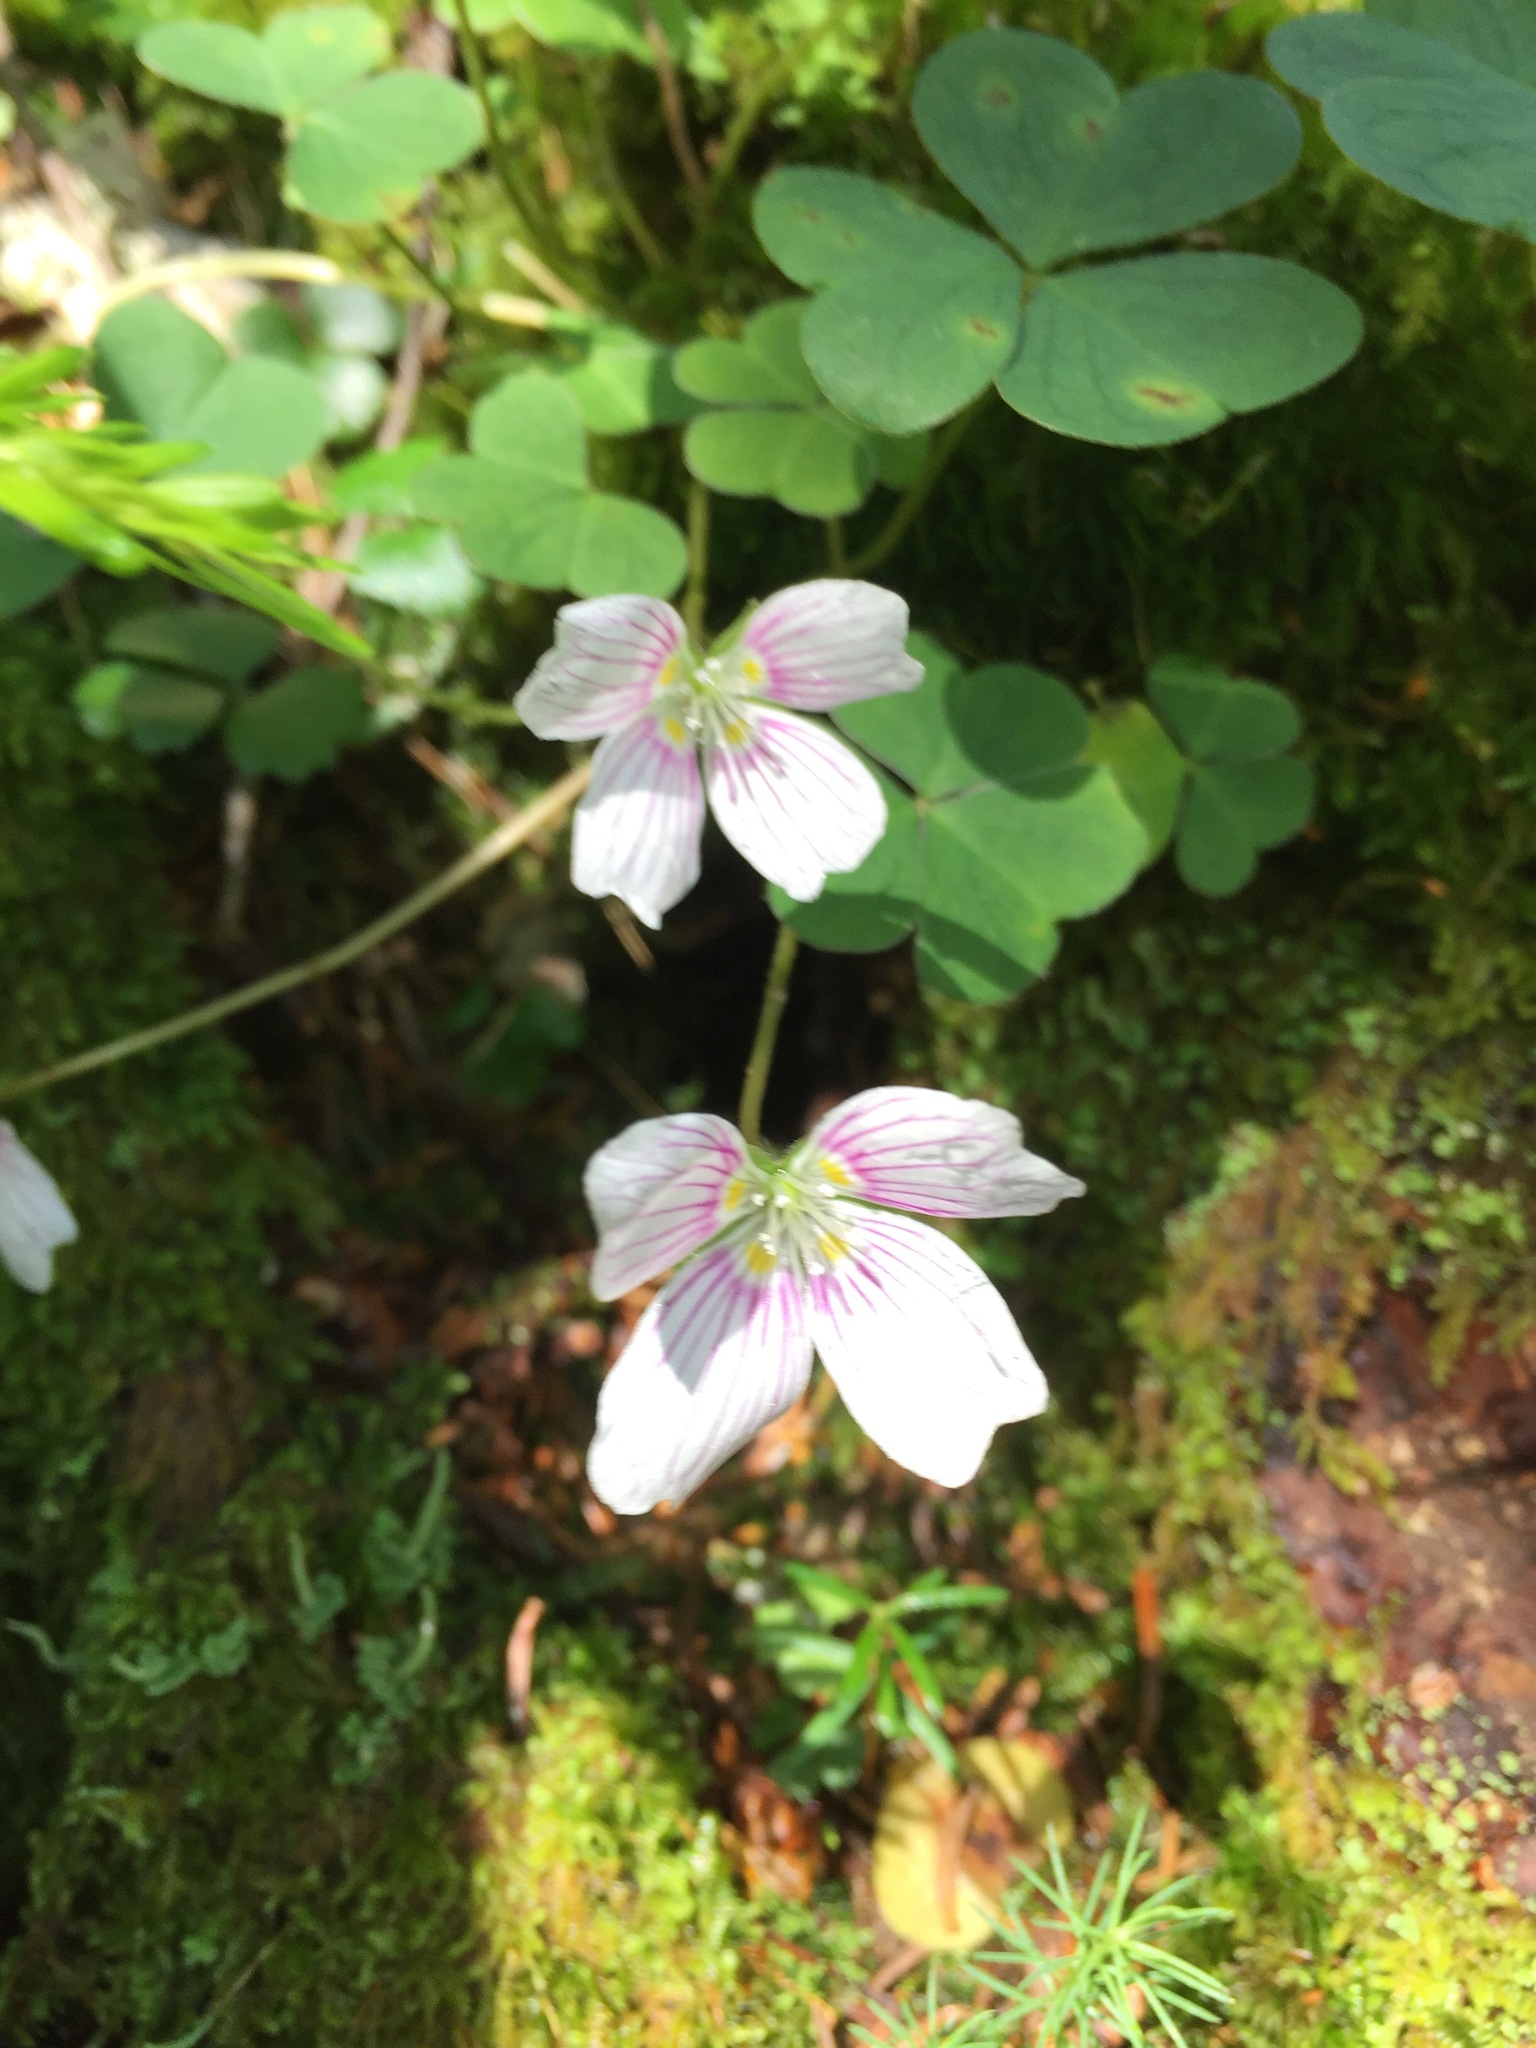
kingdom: Plantae
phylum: Tracheophyta
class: Magnoliopsida
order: Oxalidales
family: Oxalidaceae
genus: Oxalis
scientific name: Oxalis montana
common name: American wood-sorrel
